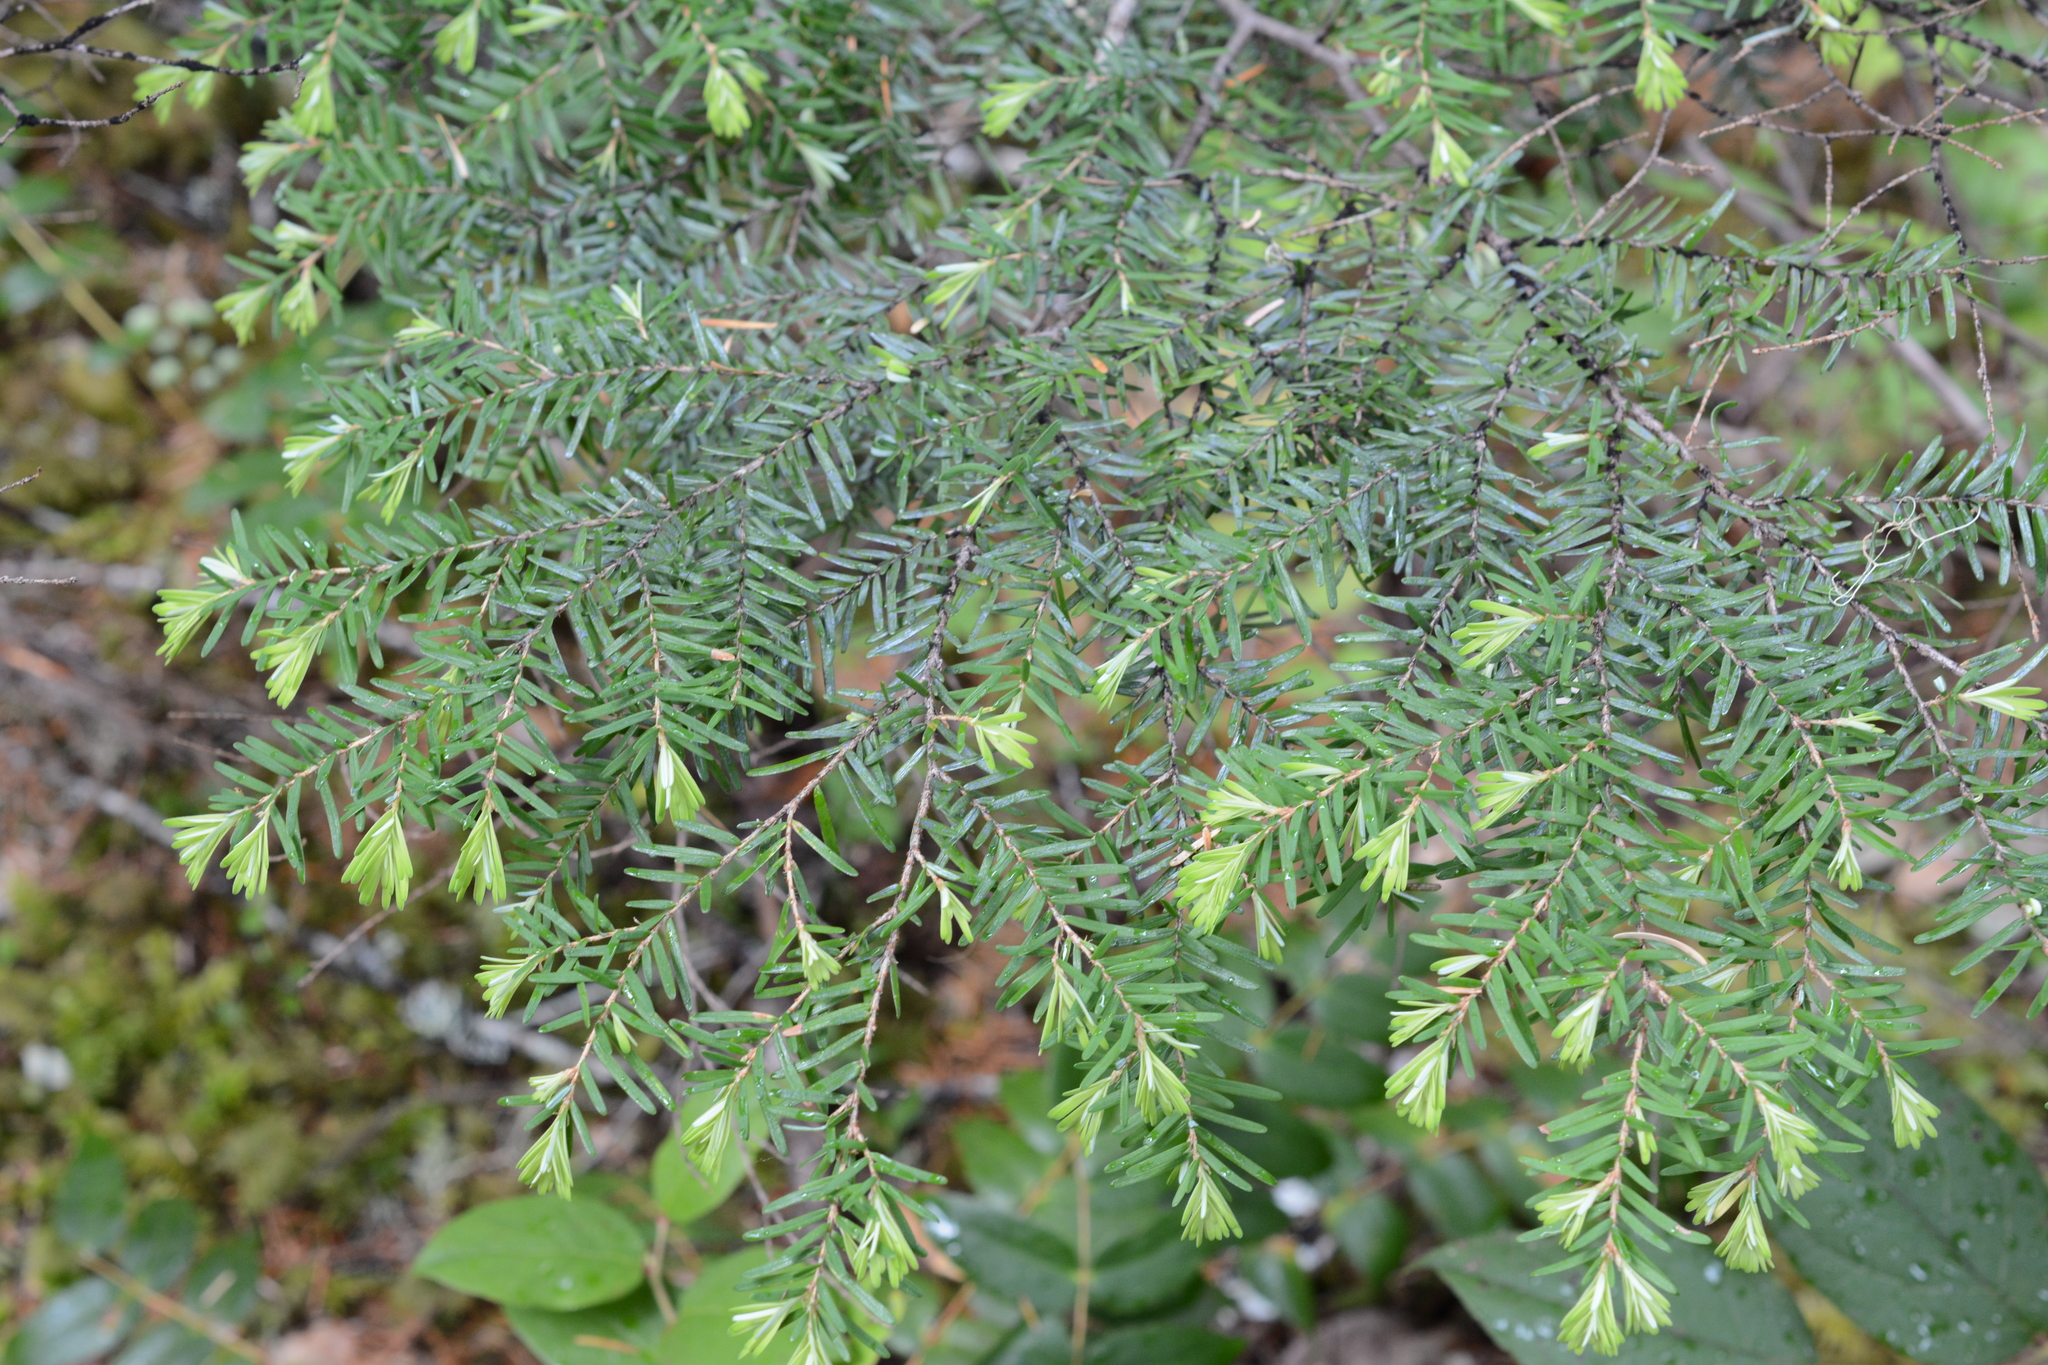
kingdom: Plantae
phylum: Tracheophyta
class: Pinopsida
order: Pinales
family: Pinaceae
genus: Tsuga
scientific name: Tsuga heterophylla
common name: Western hemlock
